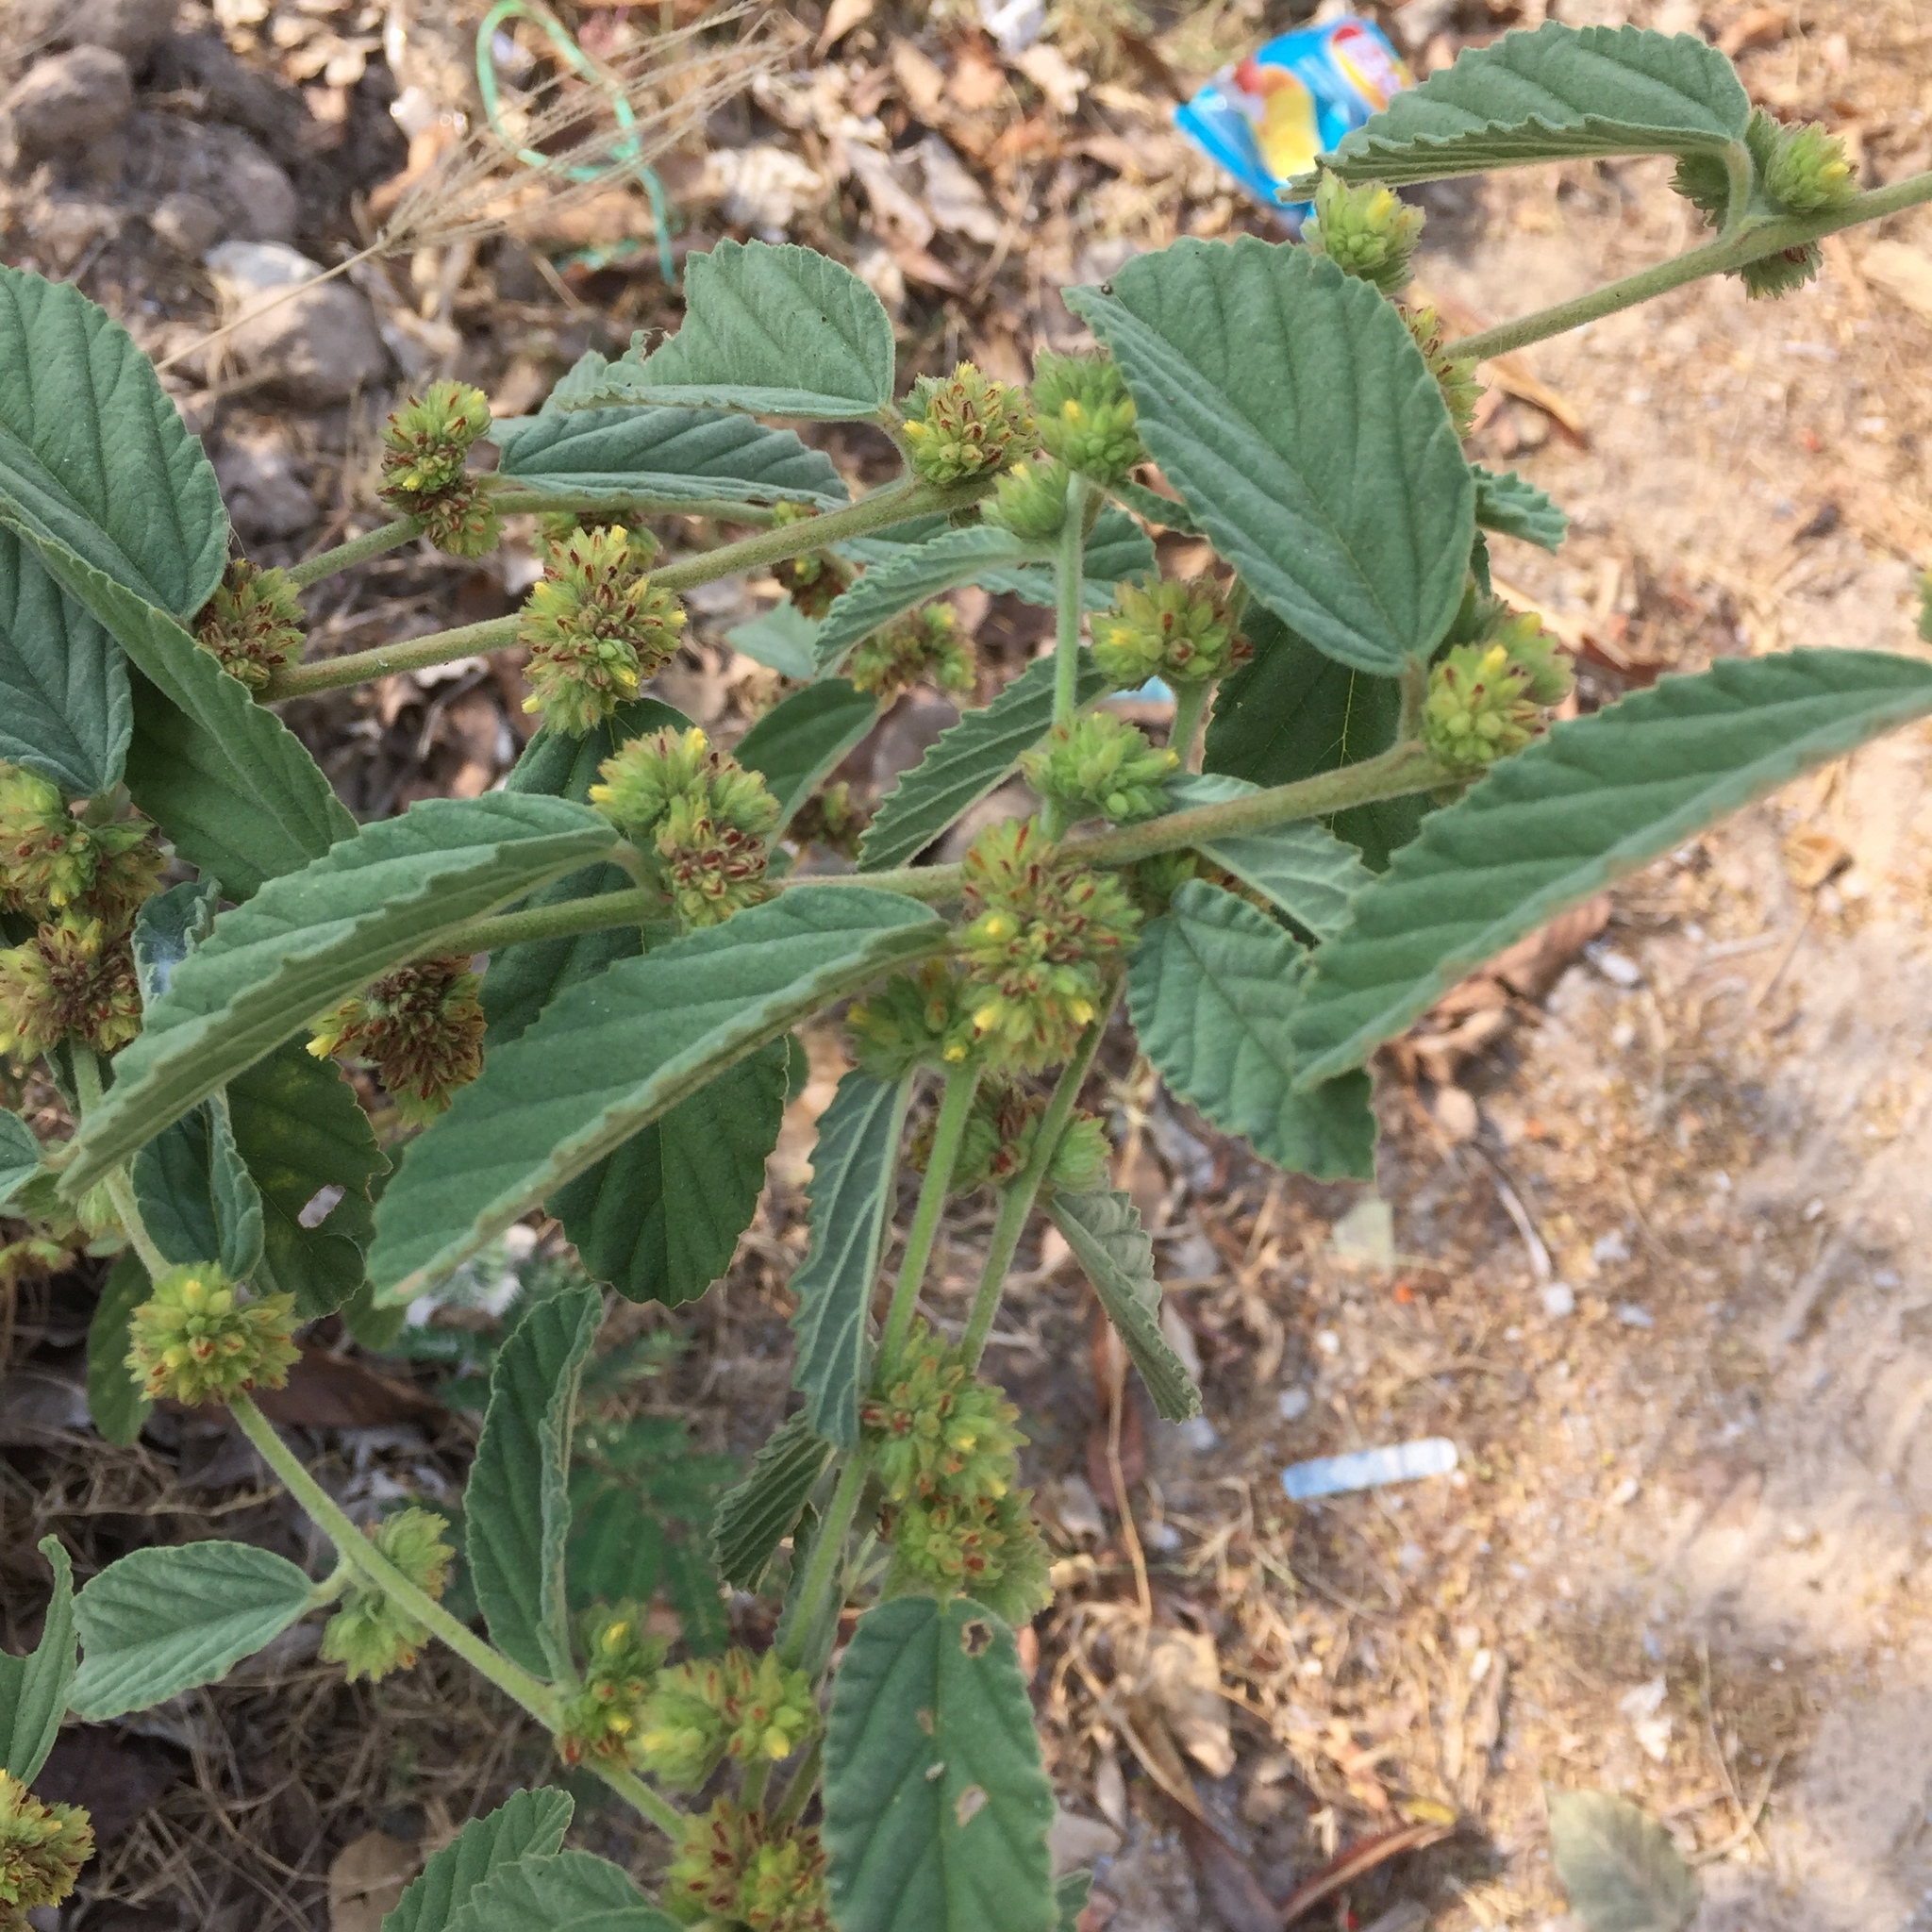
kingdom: Plantae
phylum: Tracheophyta
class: Magnoliopsida
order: Malvales
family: Malvaceae
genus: Waltheria
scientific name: Waltheria indica
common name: Leather-coat
